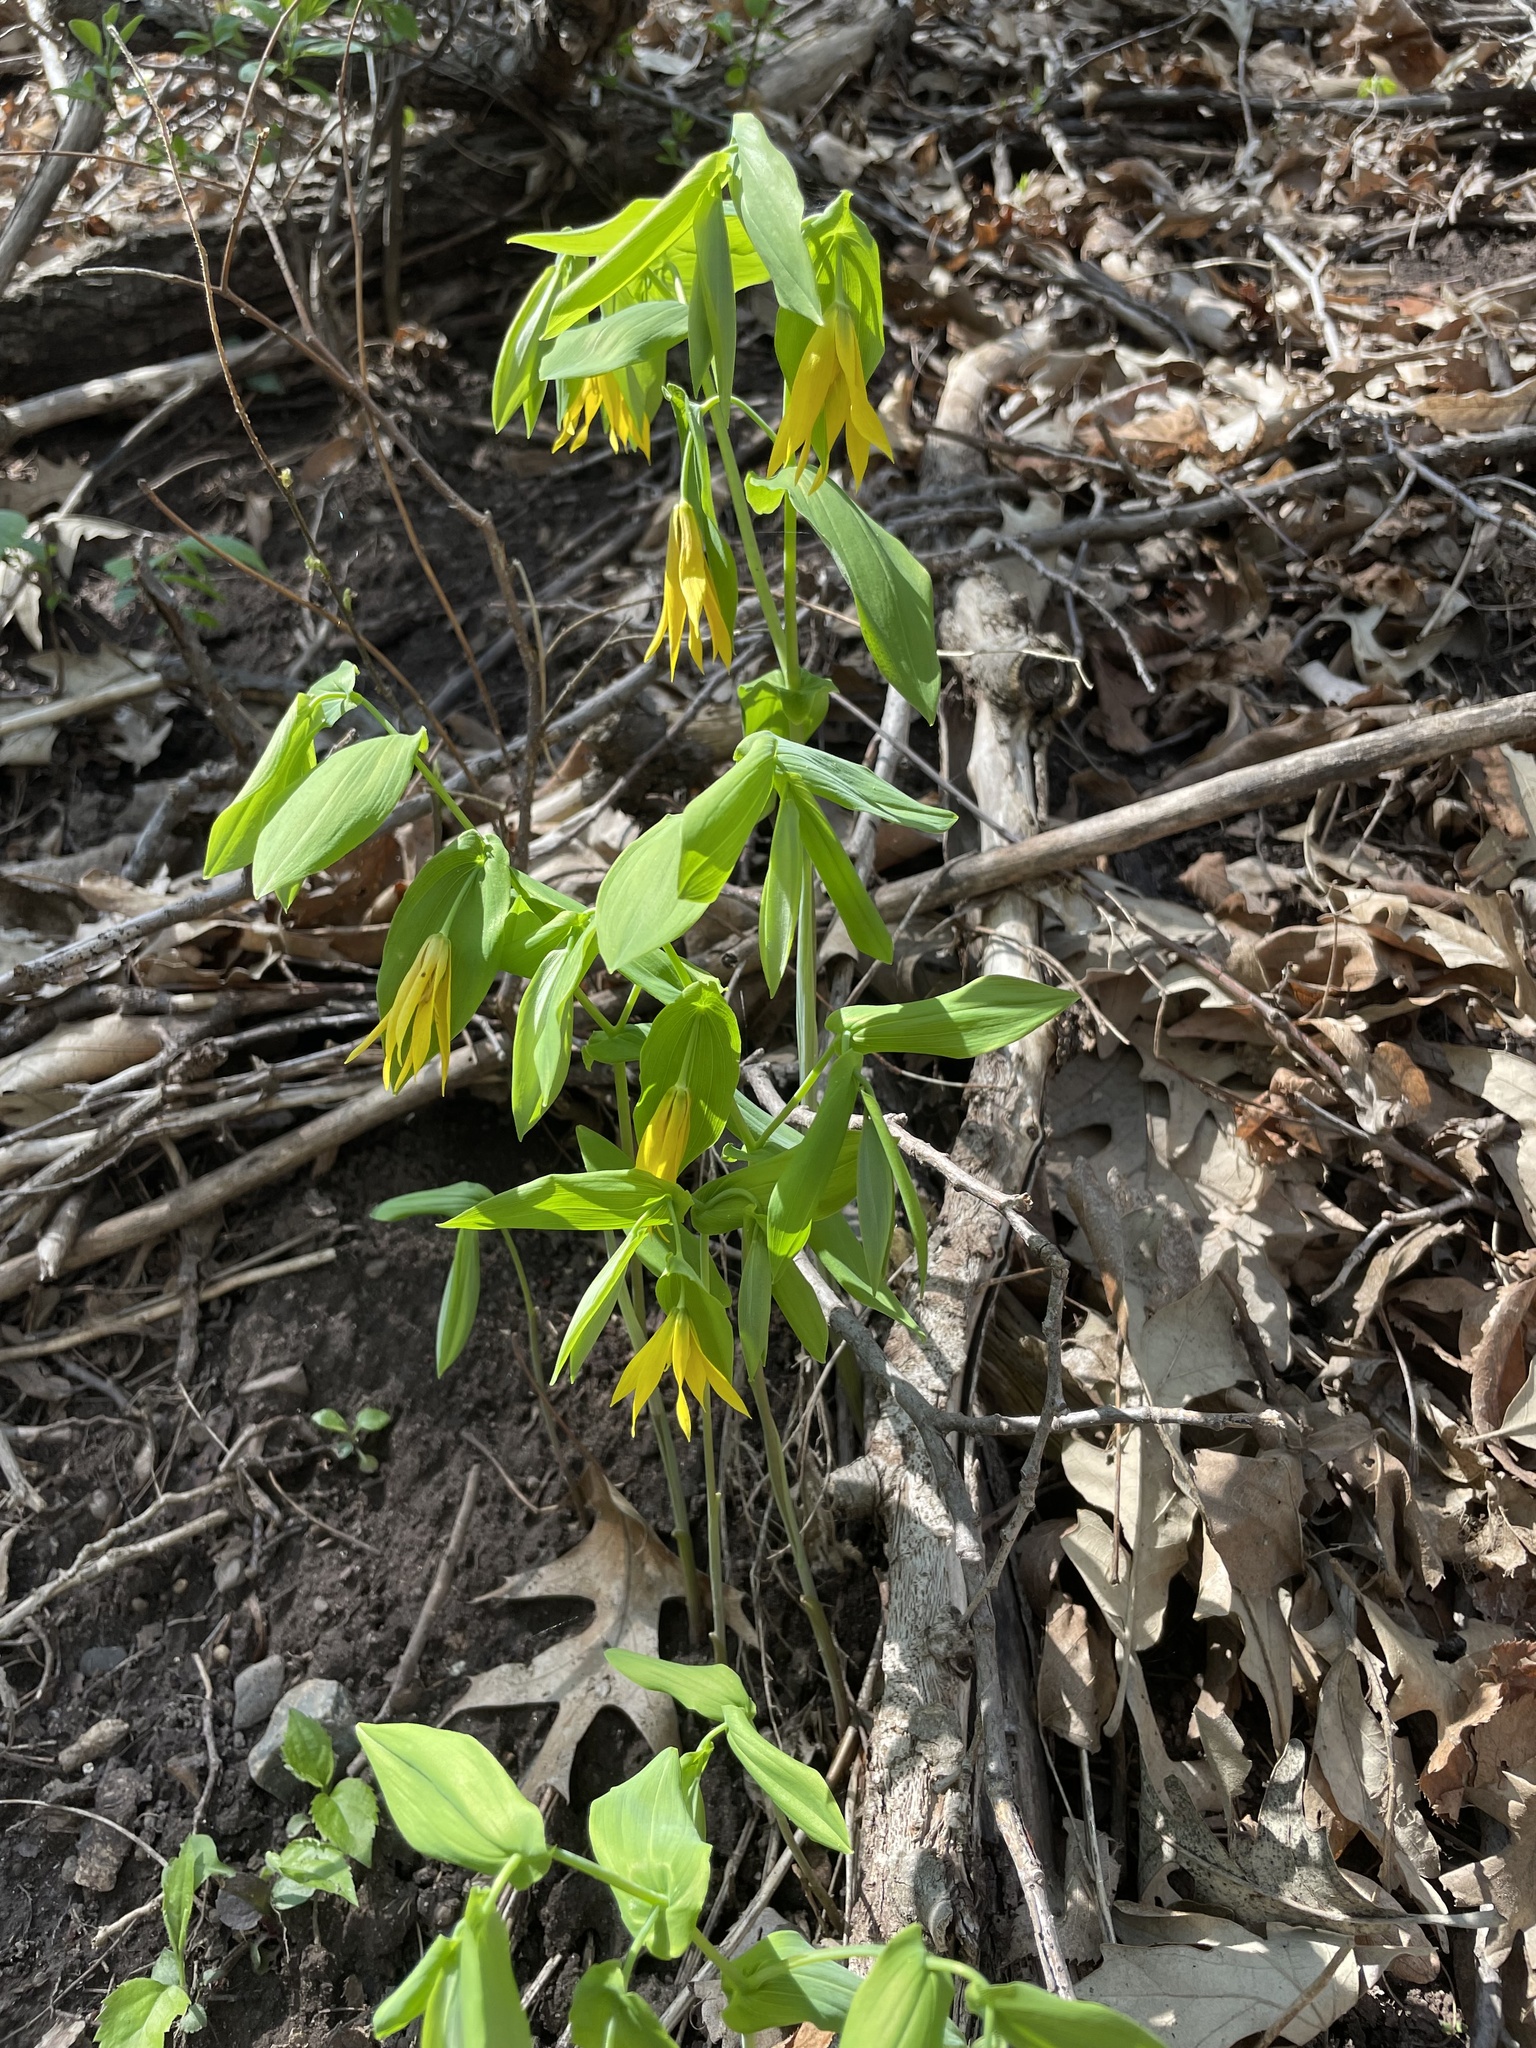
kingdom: Plantae
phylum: Tracheophyta
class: Liliopsida
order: Liliales
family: Colchicaceae
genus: Uvularia
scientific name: Uvularia grandiflora
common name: Bellwort
